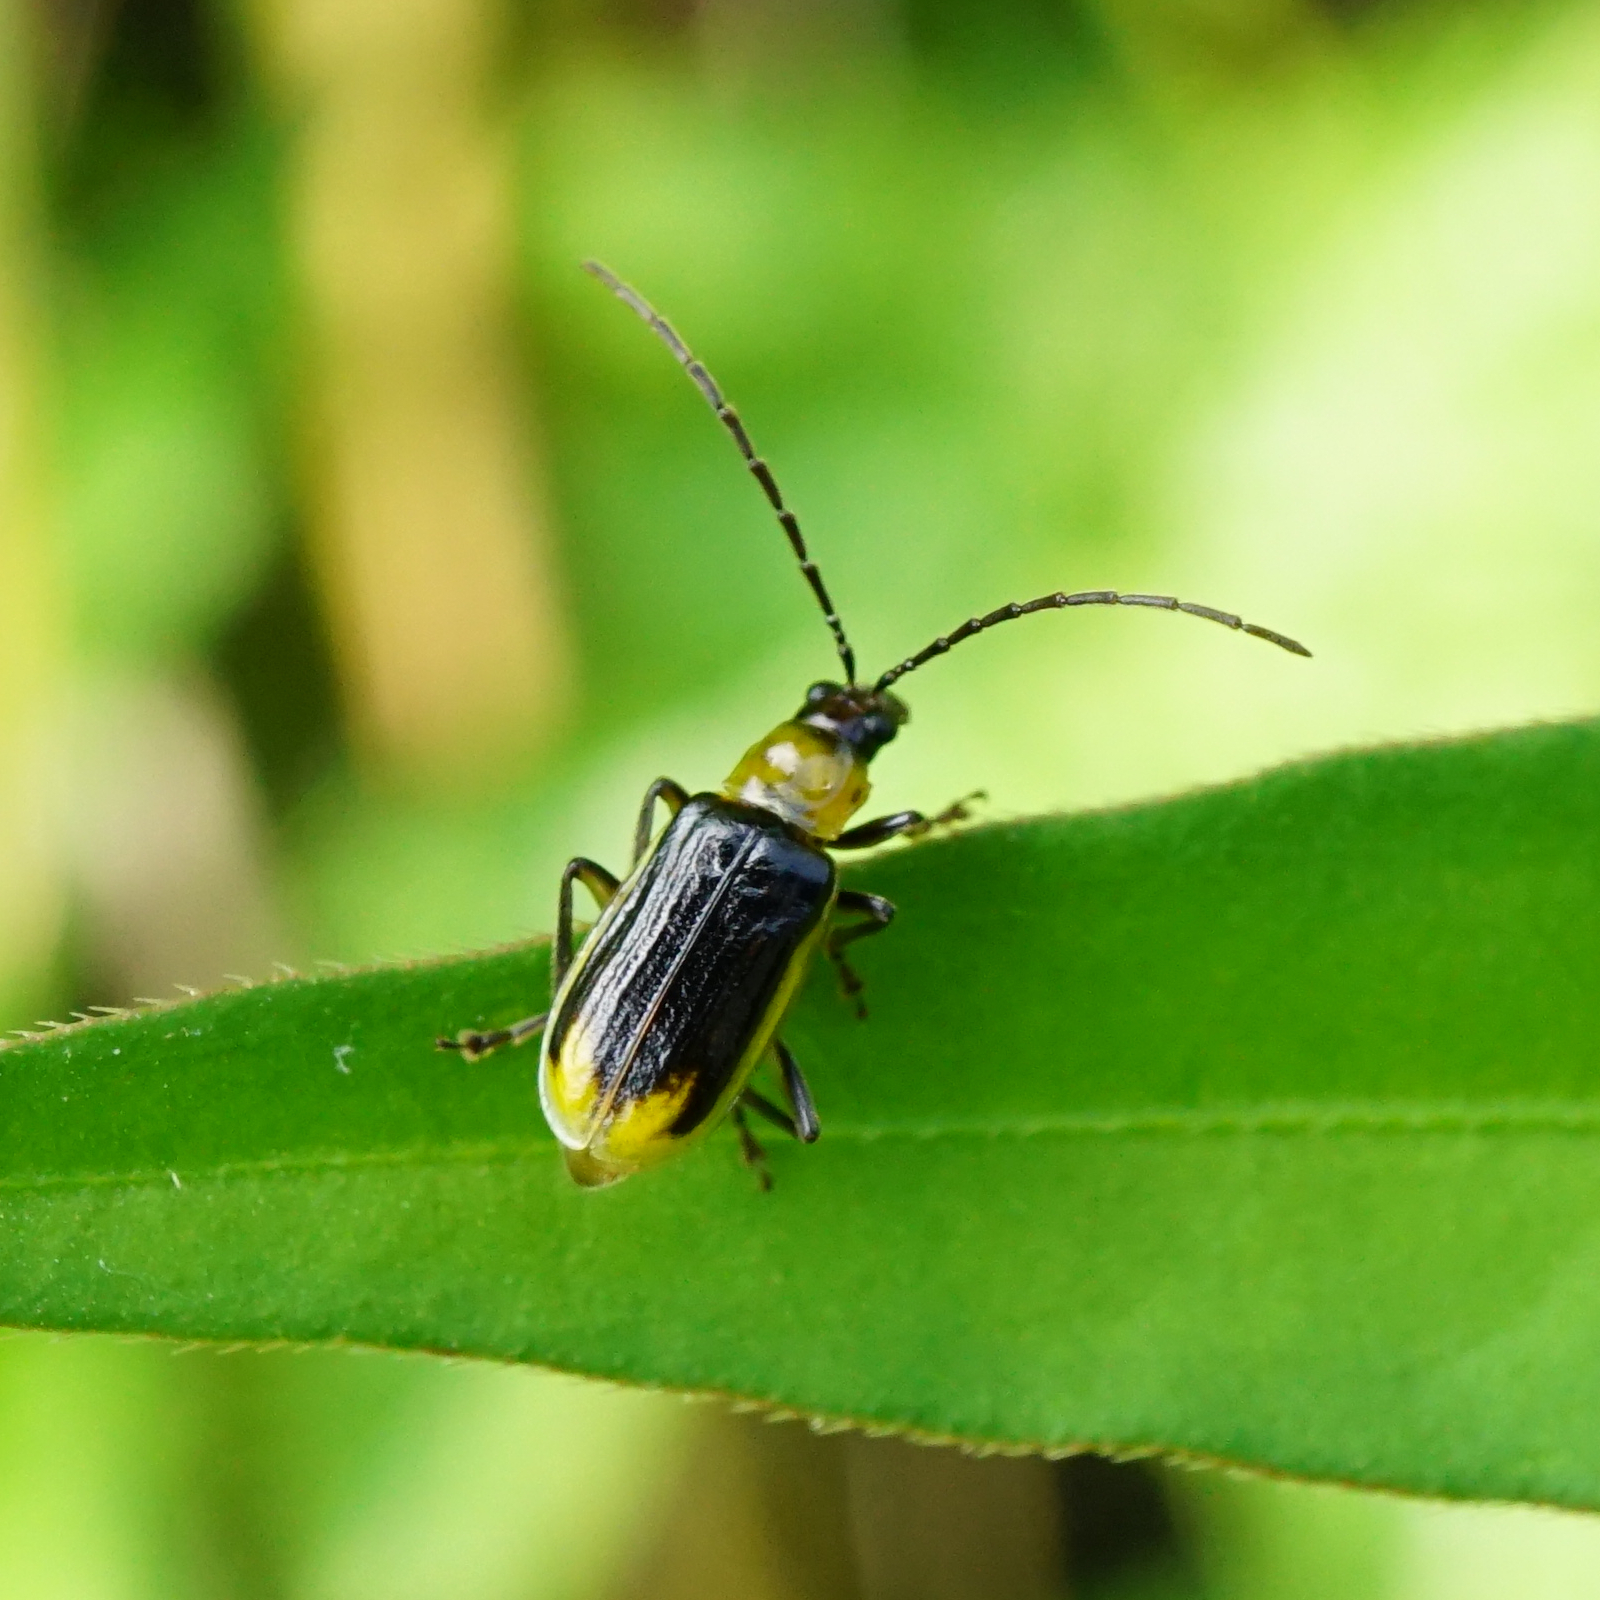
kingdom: Animalia
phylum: Arthropoda
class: Insecta
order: Coleoptera
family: Chrysomelidae
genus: Diabrotica
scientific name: Diabrotica virgifera
